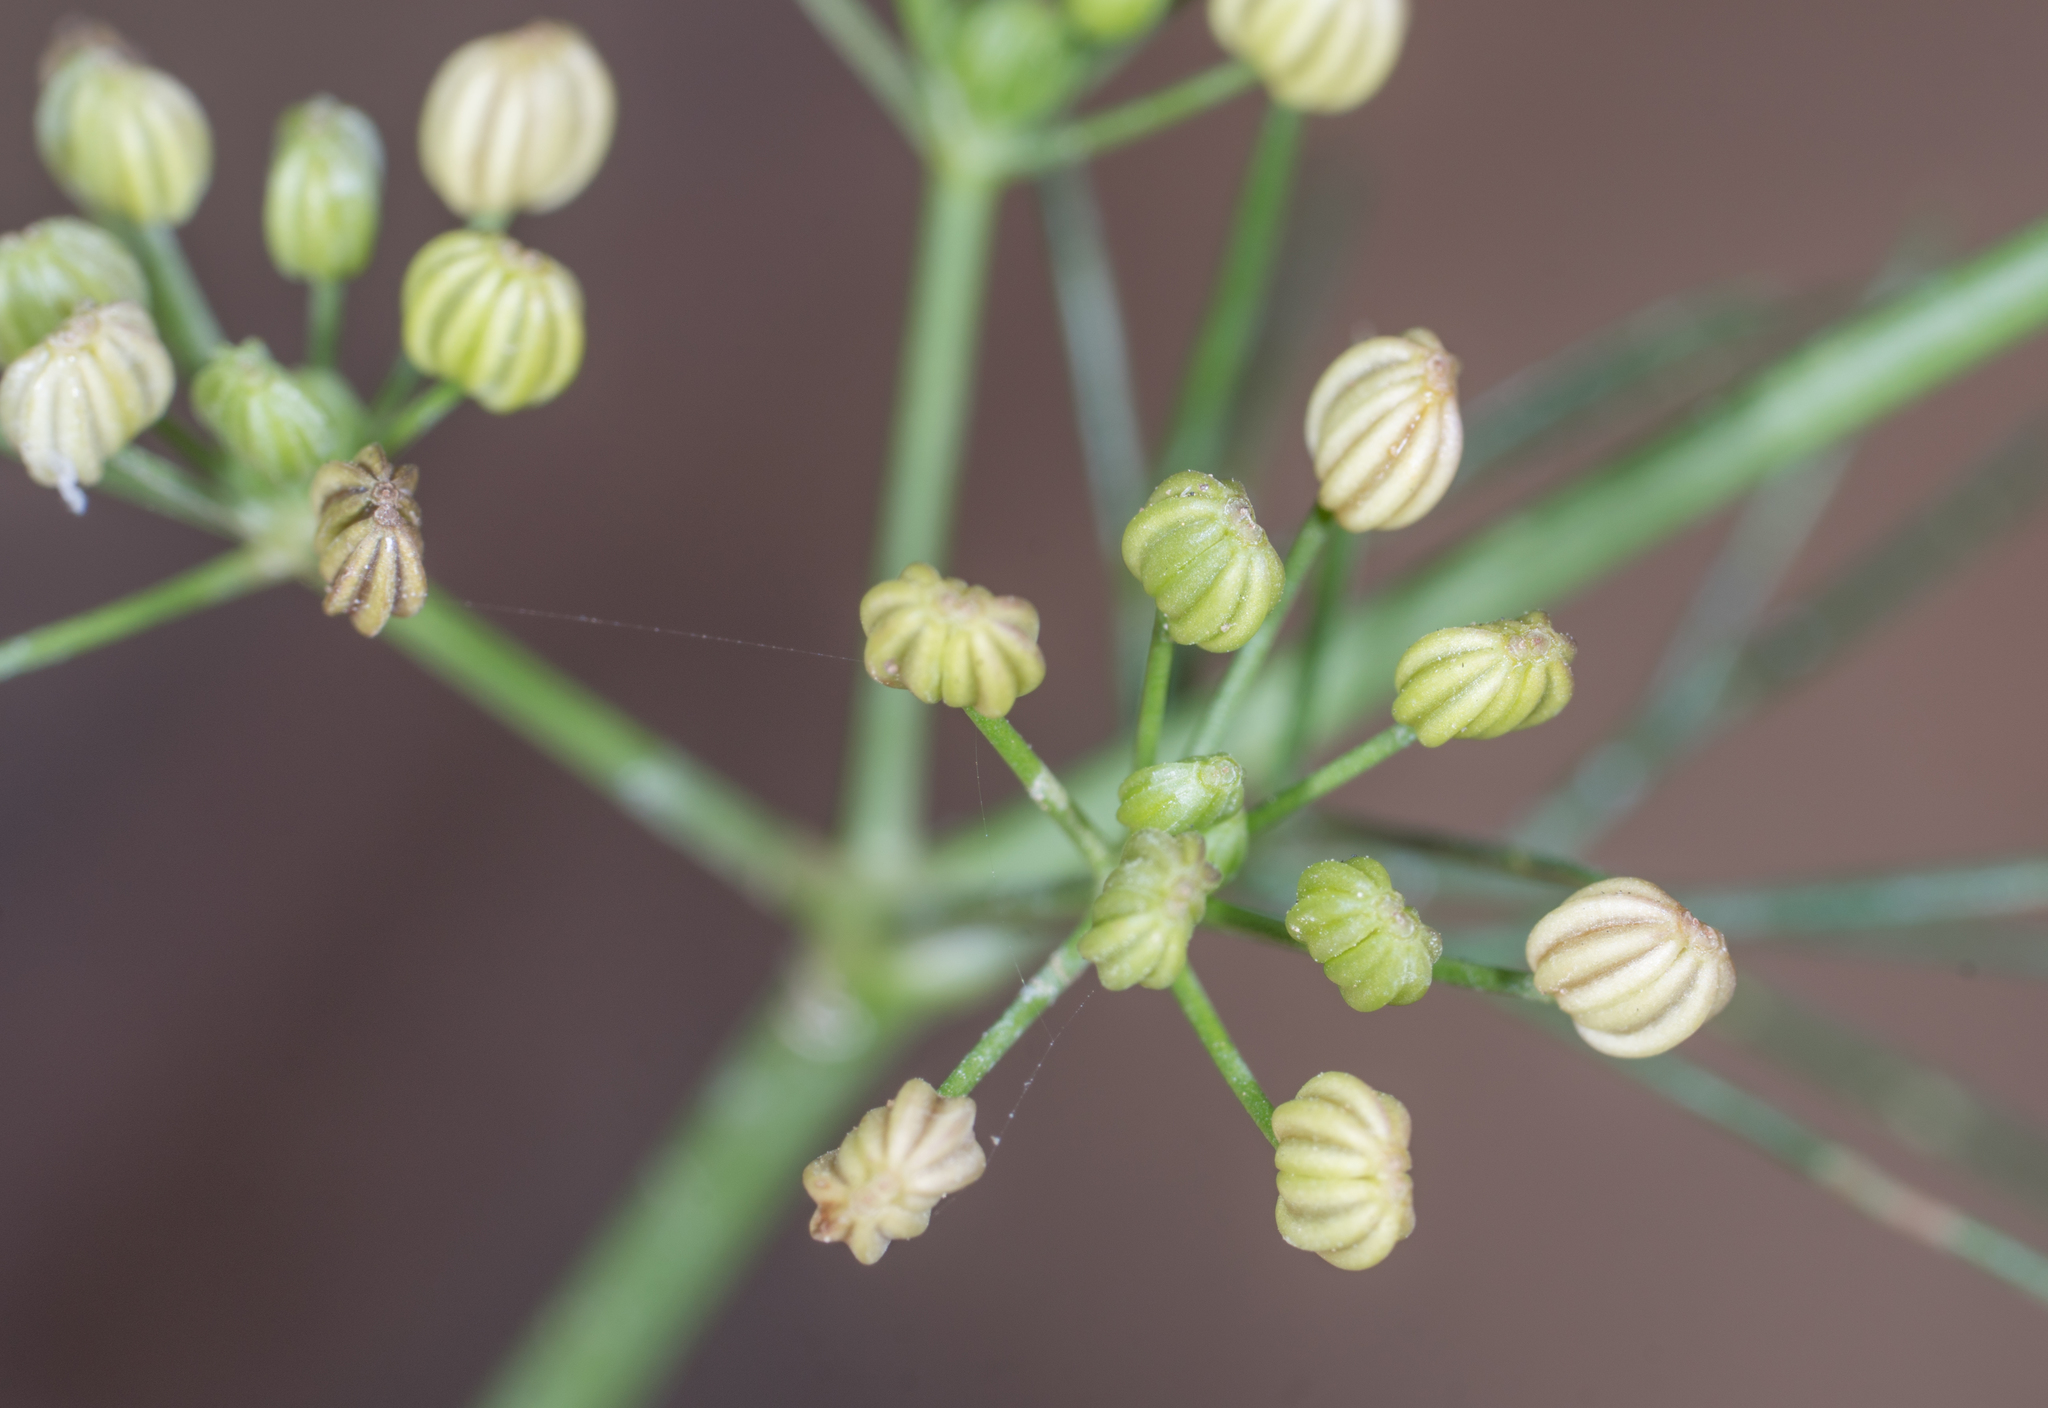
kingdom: Plantae
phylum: Tracheophyta
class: Magnoliopsida
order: Apiales
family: Apiaceae
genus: Cyclospermum
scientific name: Cyclospermum leptophyllum
